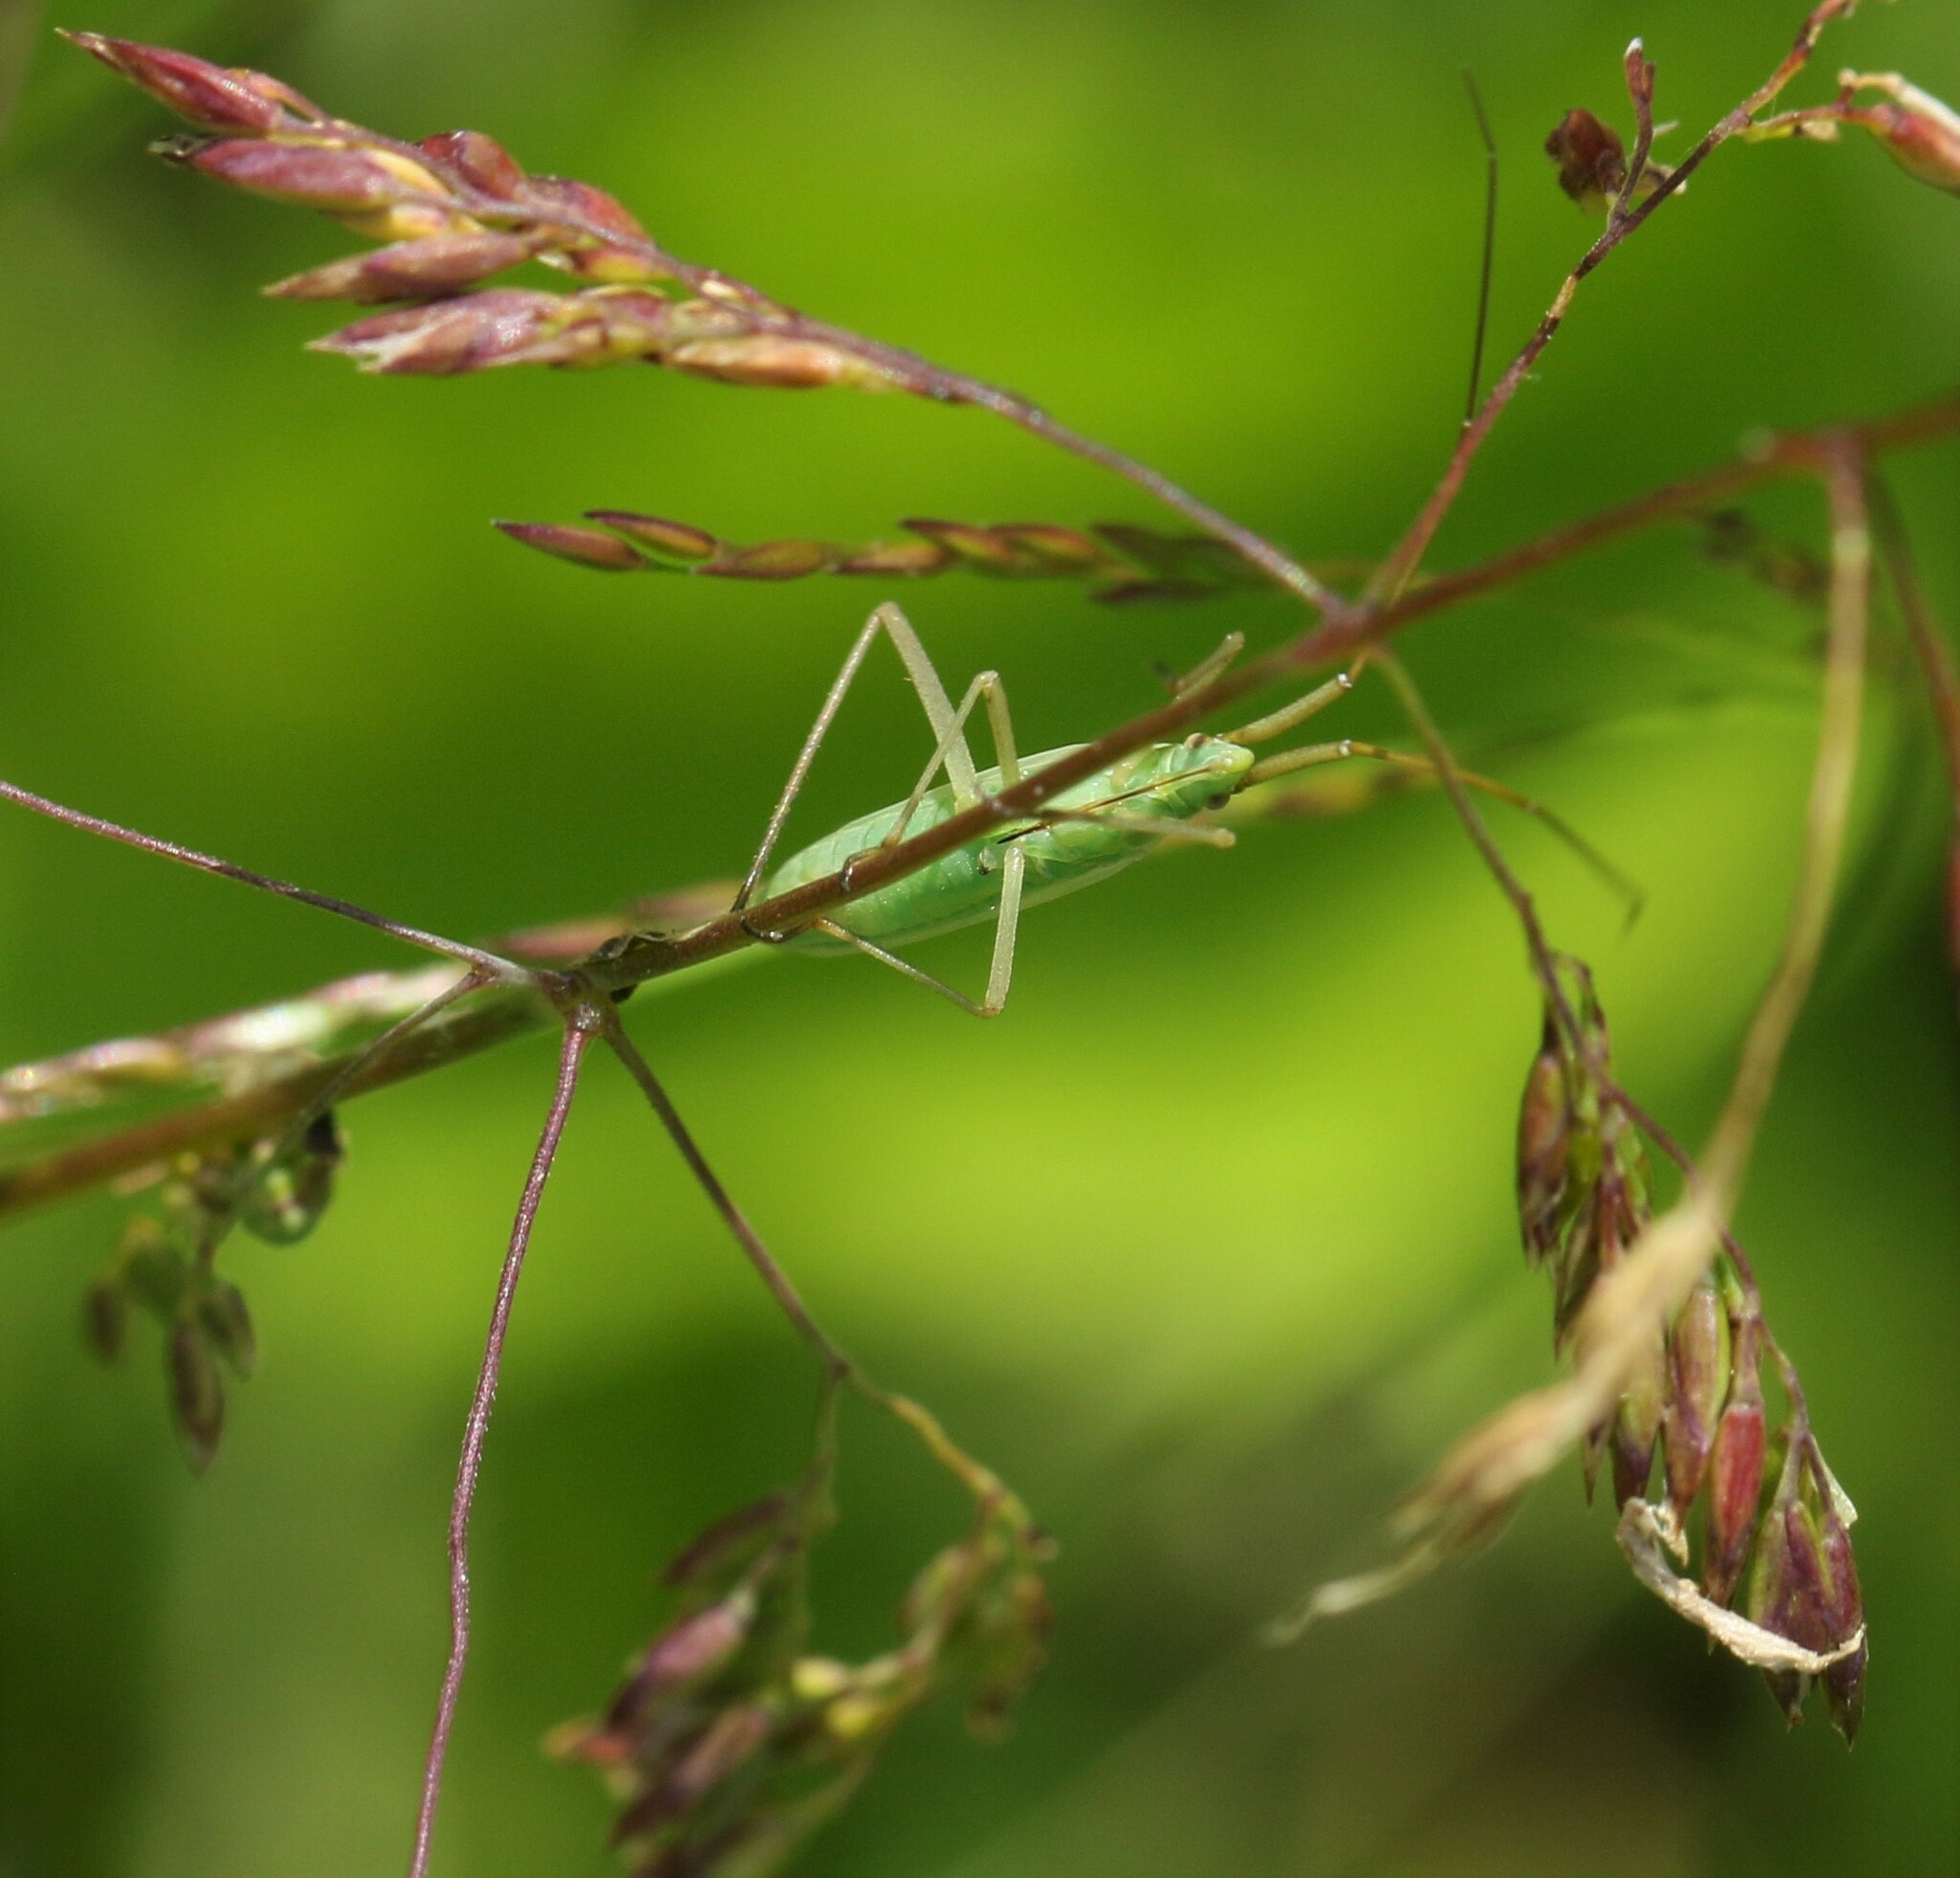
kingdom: Animalia
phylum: Arthropoda
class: Insecta
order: Hemiptera
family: Miridae
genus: Megaloceroea
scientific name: Megaloceroea recticornis
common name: Plant bug
